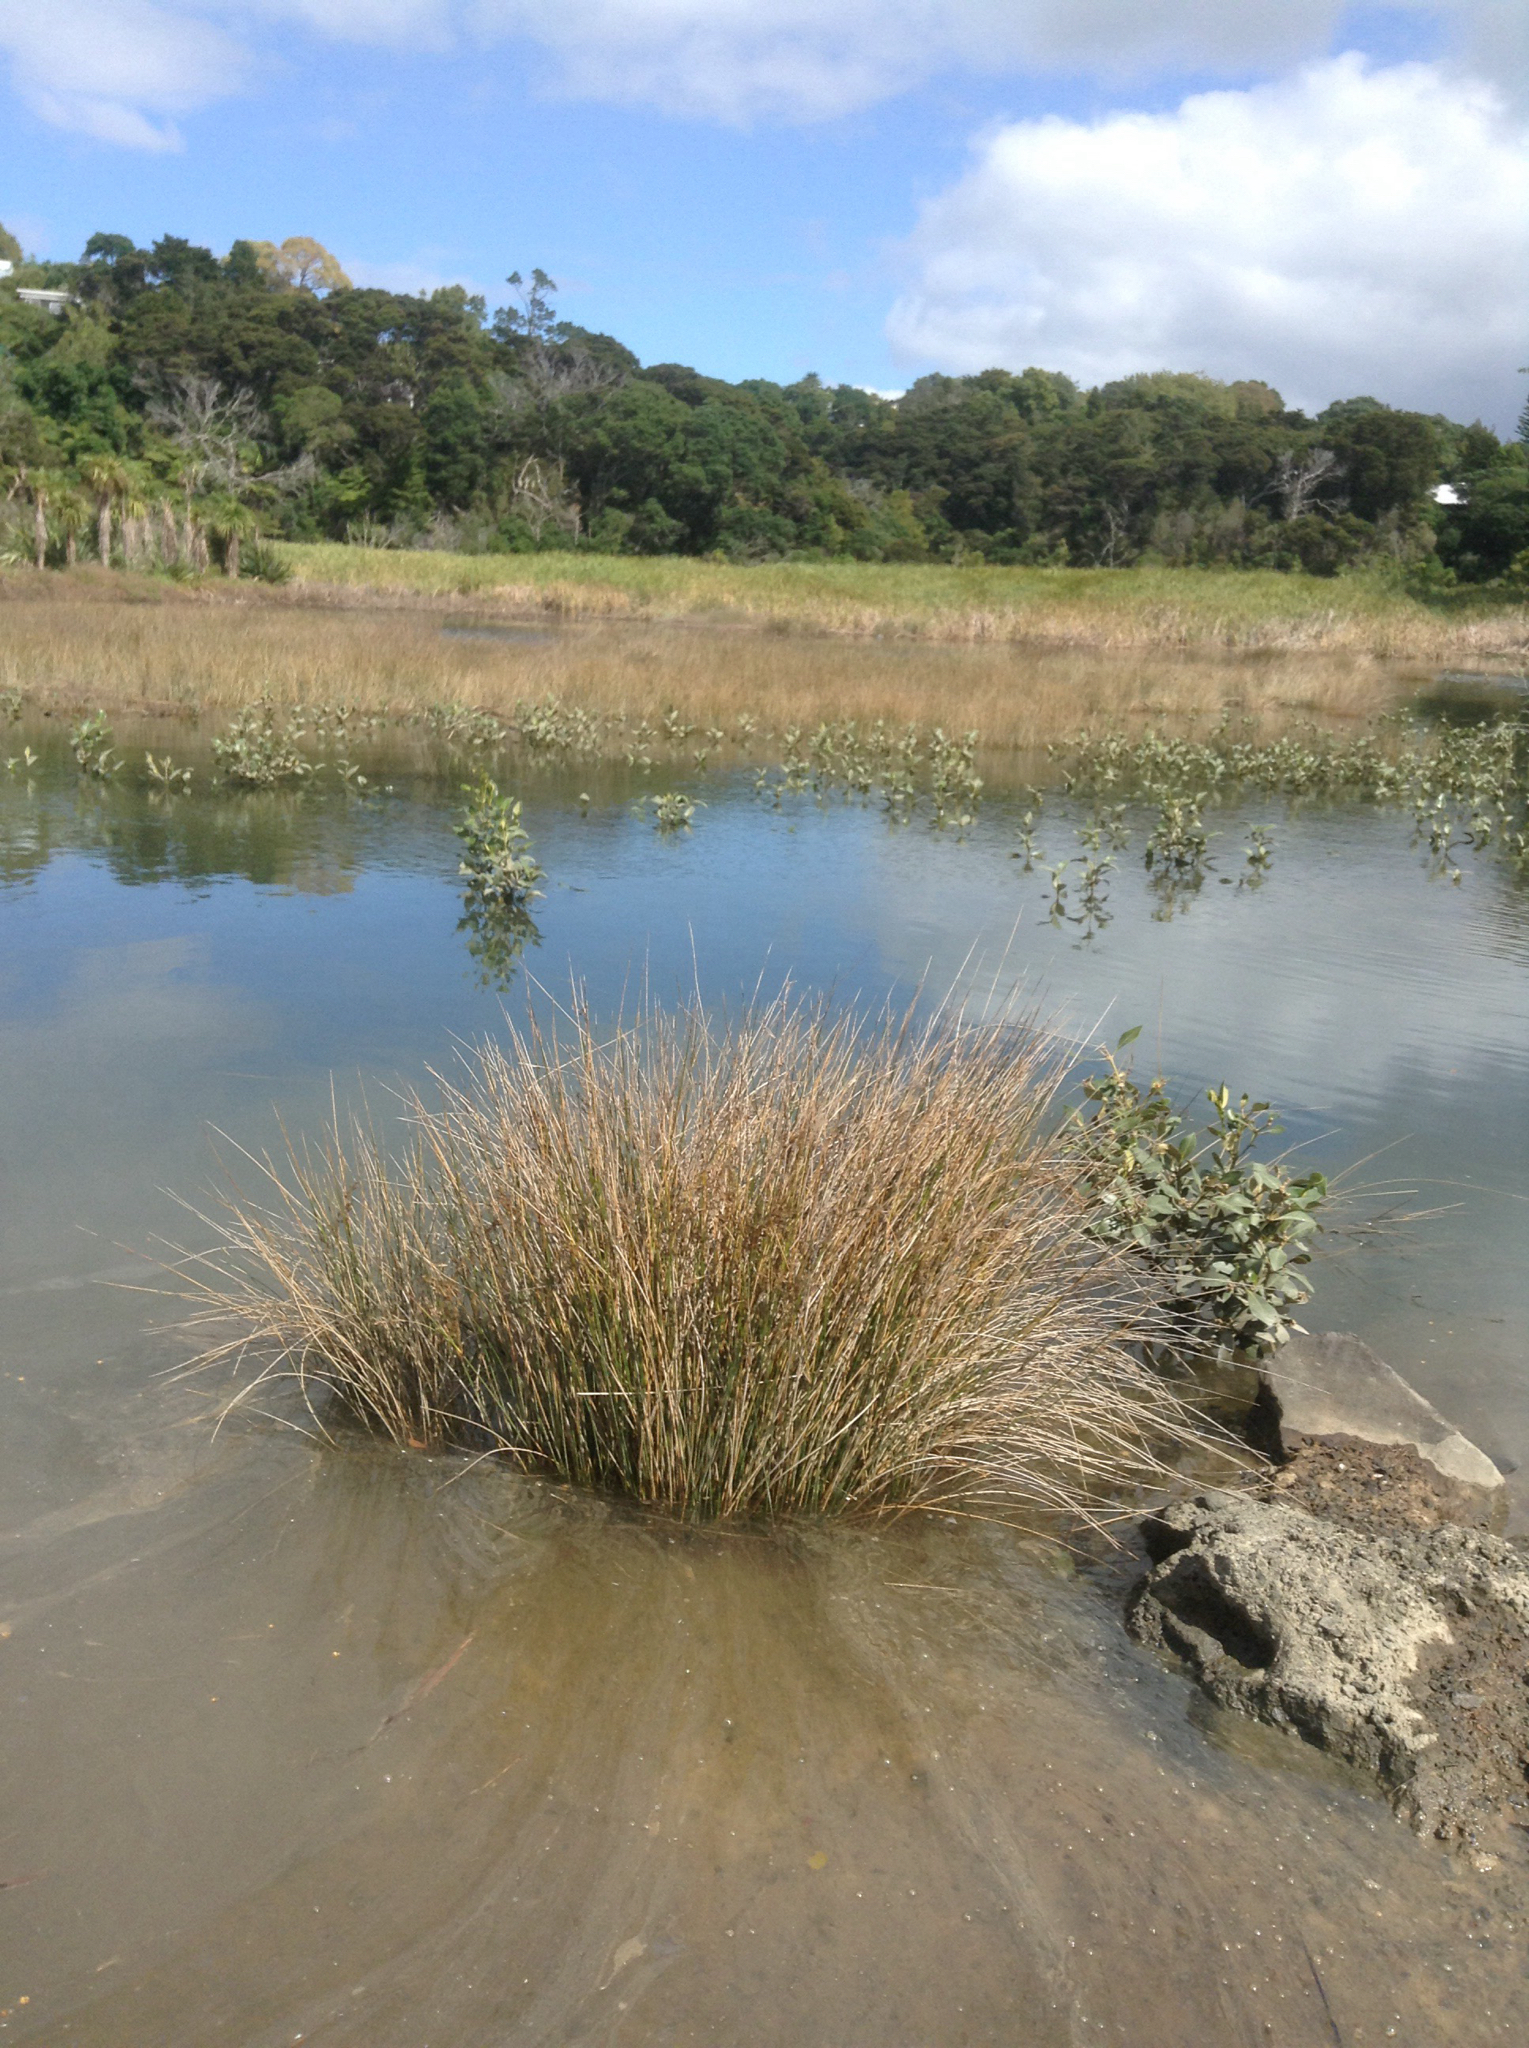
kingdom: Plantae
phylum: Tracheophyta
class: Liliopsida
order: Poales
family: Juncaceae
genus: Juncus
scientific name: Juncus kraussii
